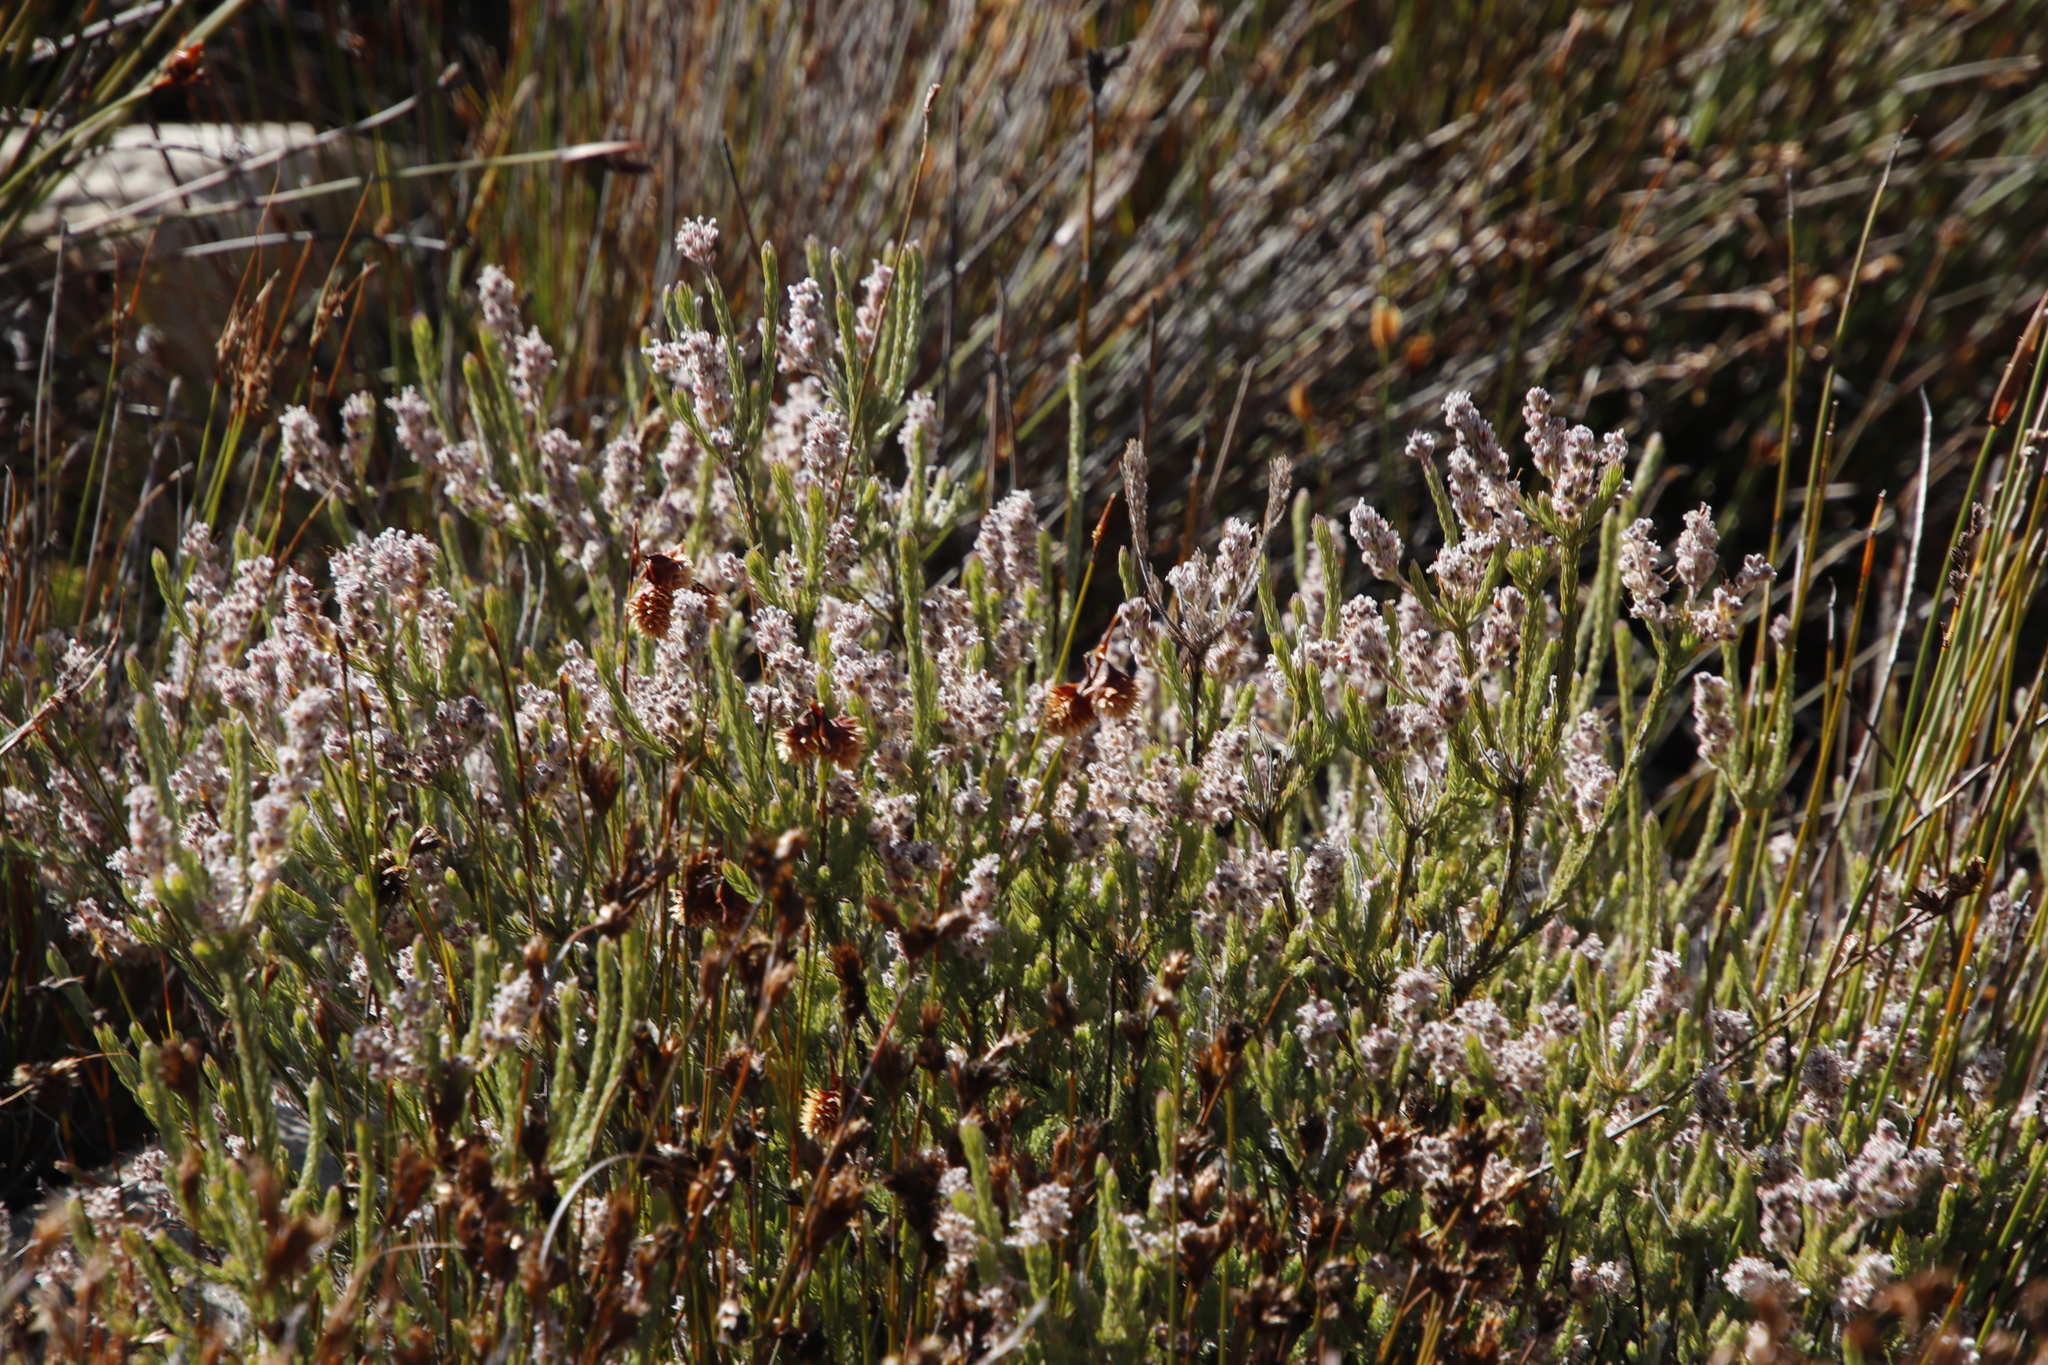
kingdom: Plantae
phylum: Tracheophyta
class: Magnoliopsida
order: Proteales
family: Proteaceae
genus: Spatalla
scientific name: Spatalla incurva
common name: Swan-head spoon
